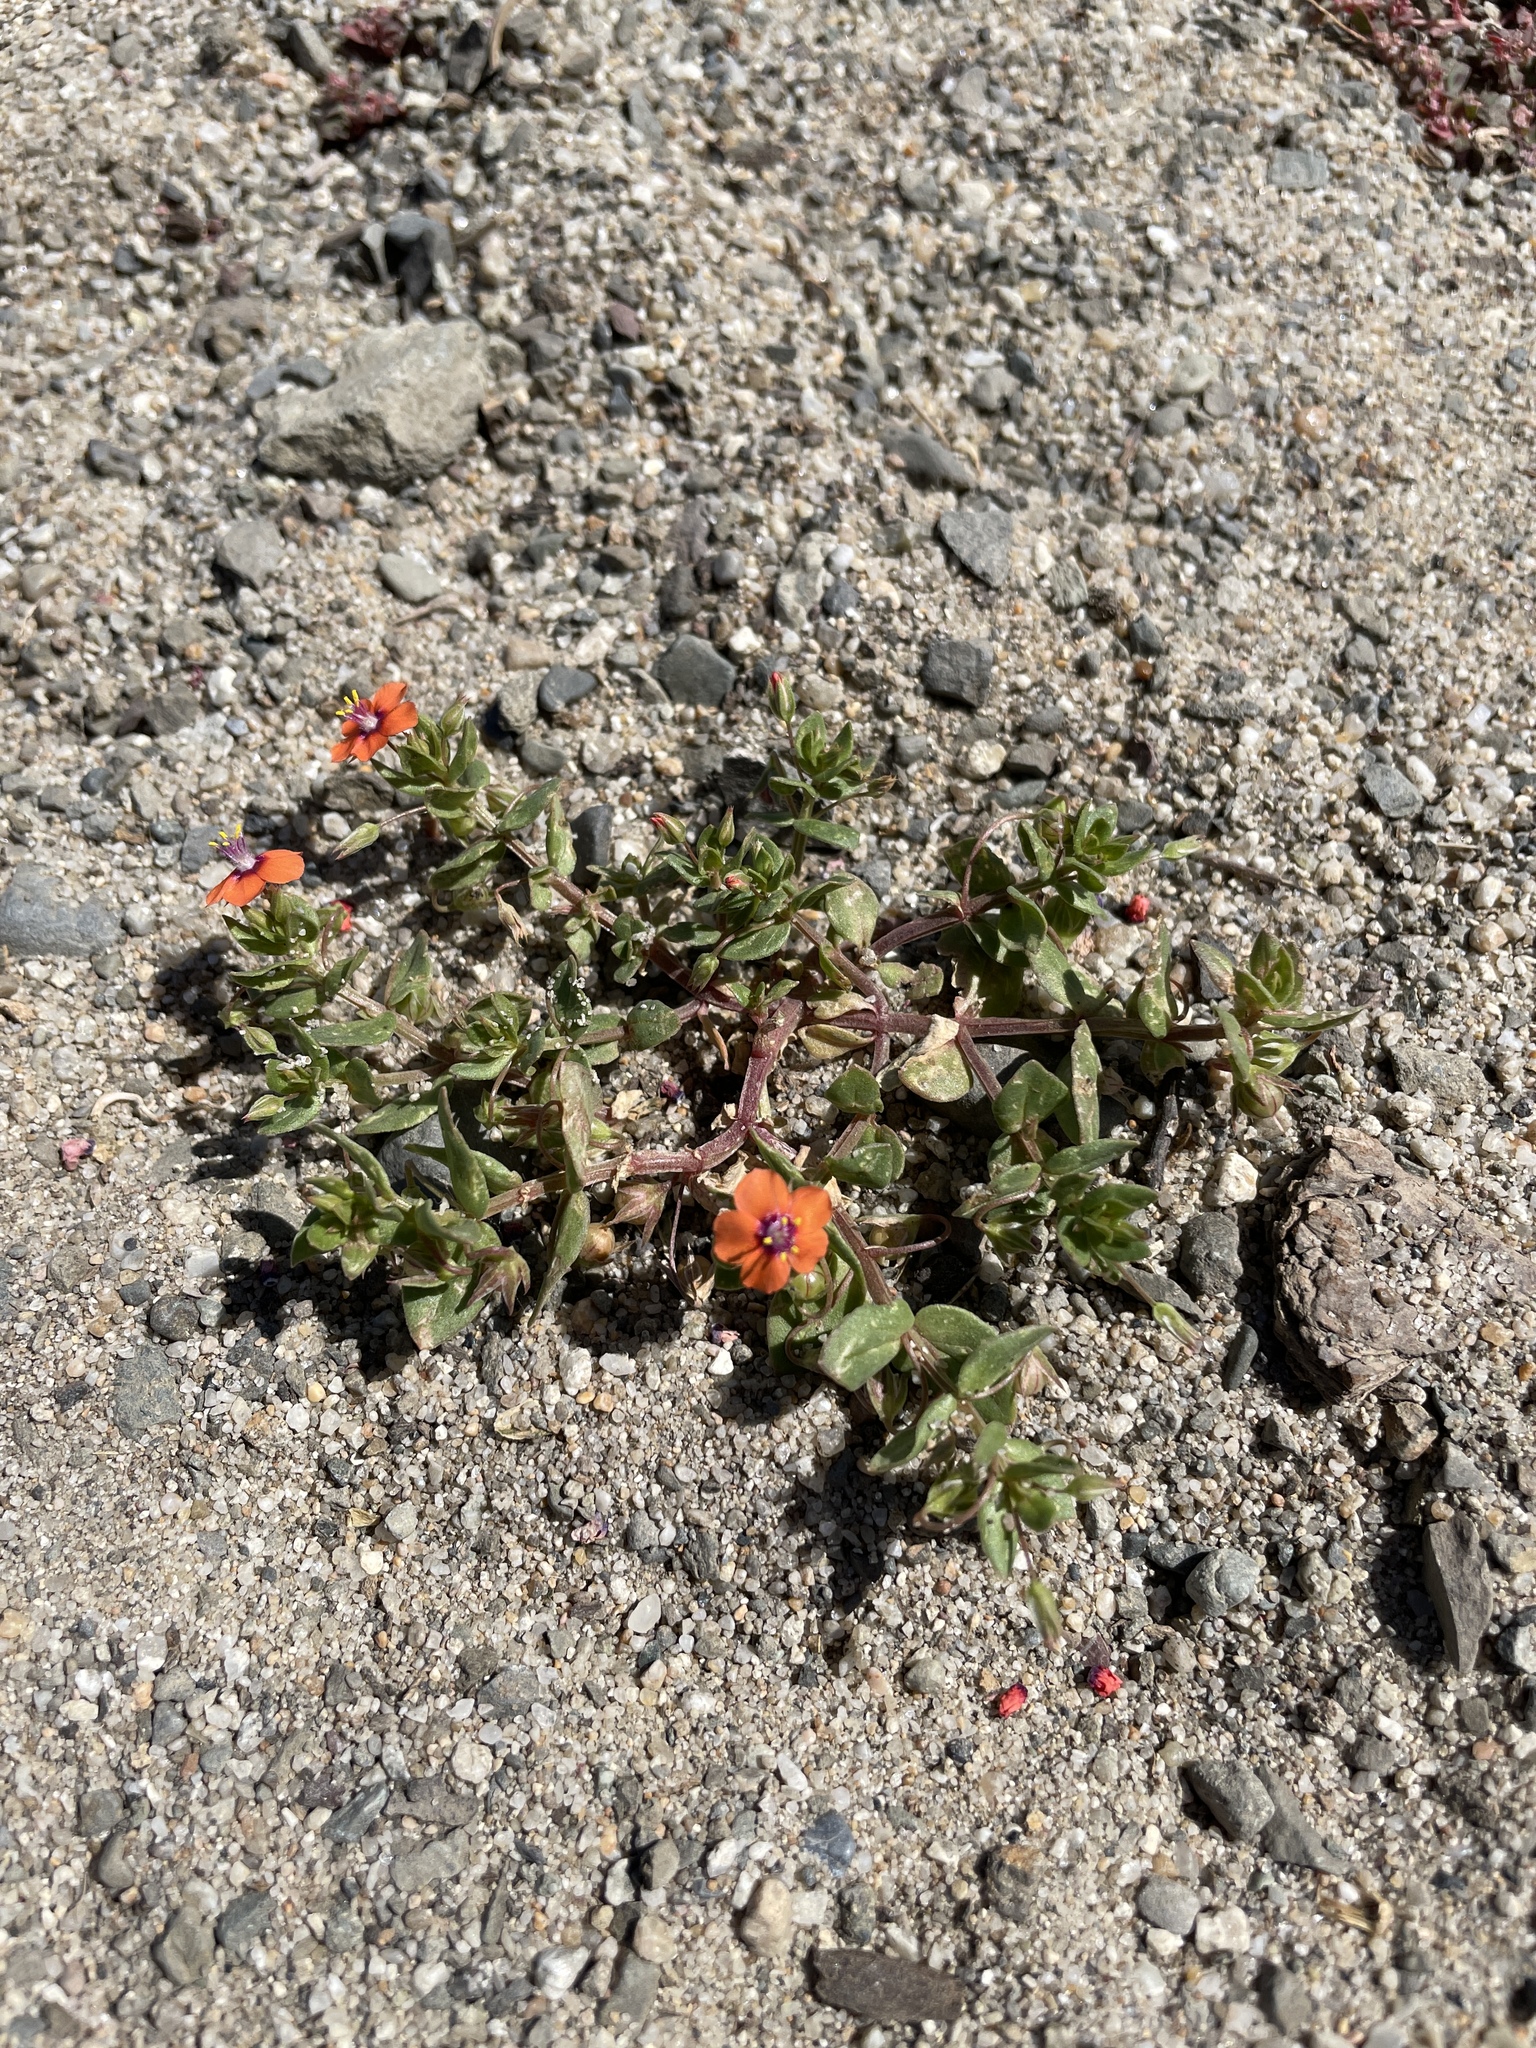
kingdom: Plantae
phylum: Tracheophyta
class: Magnoliopsida
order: Ericales
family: Primulaceae
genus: Lysimachia
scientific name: Lysimachia arvensis
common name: Scarlet pimpernel
